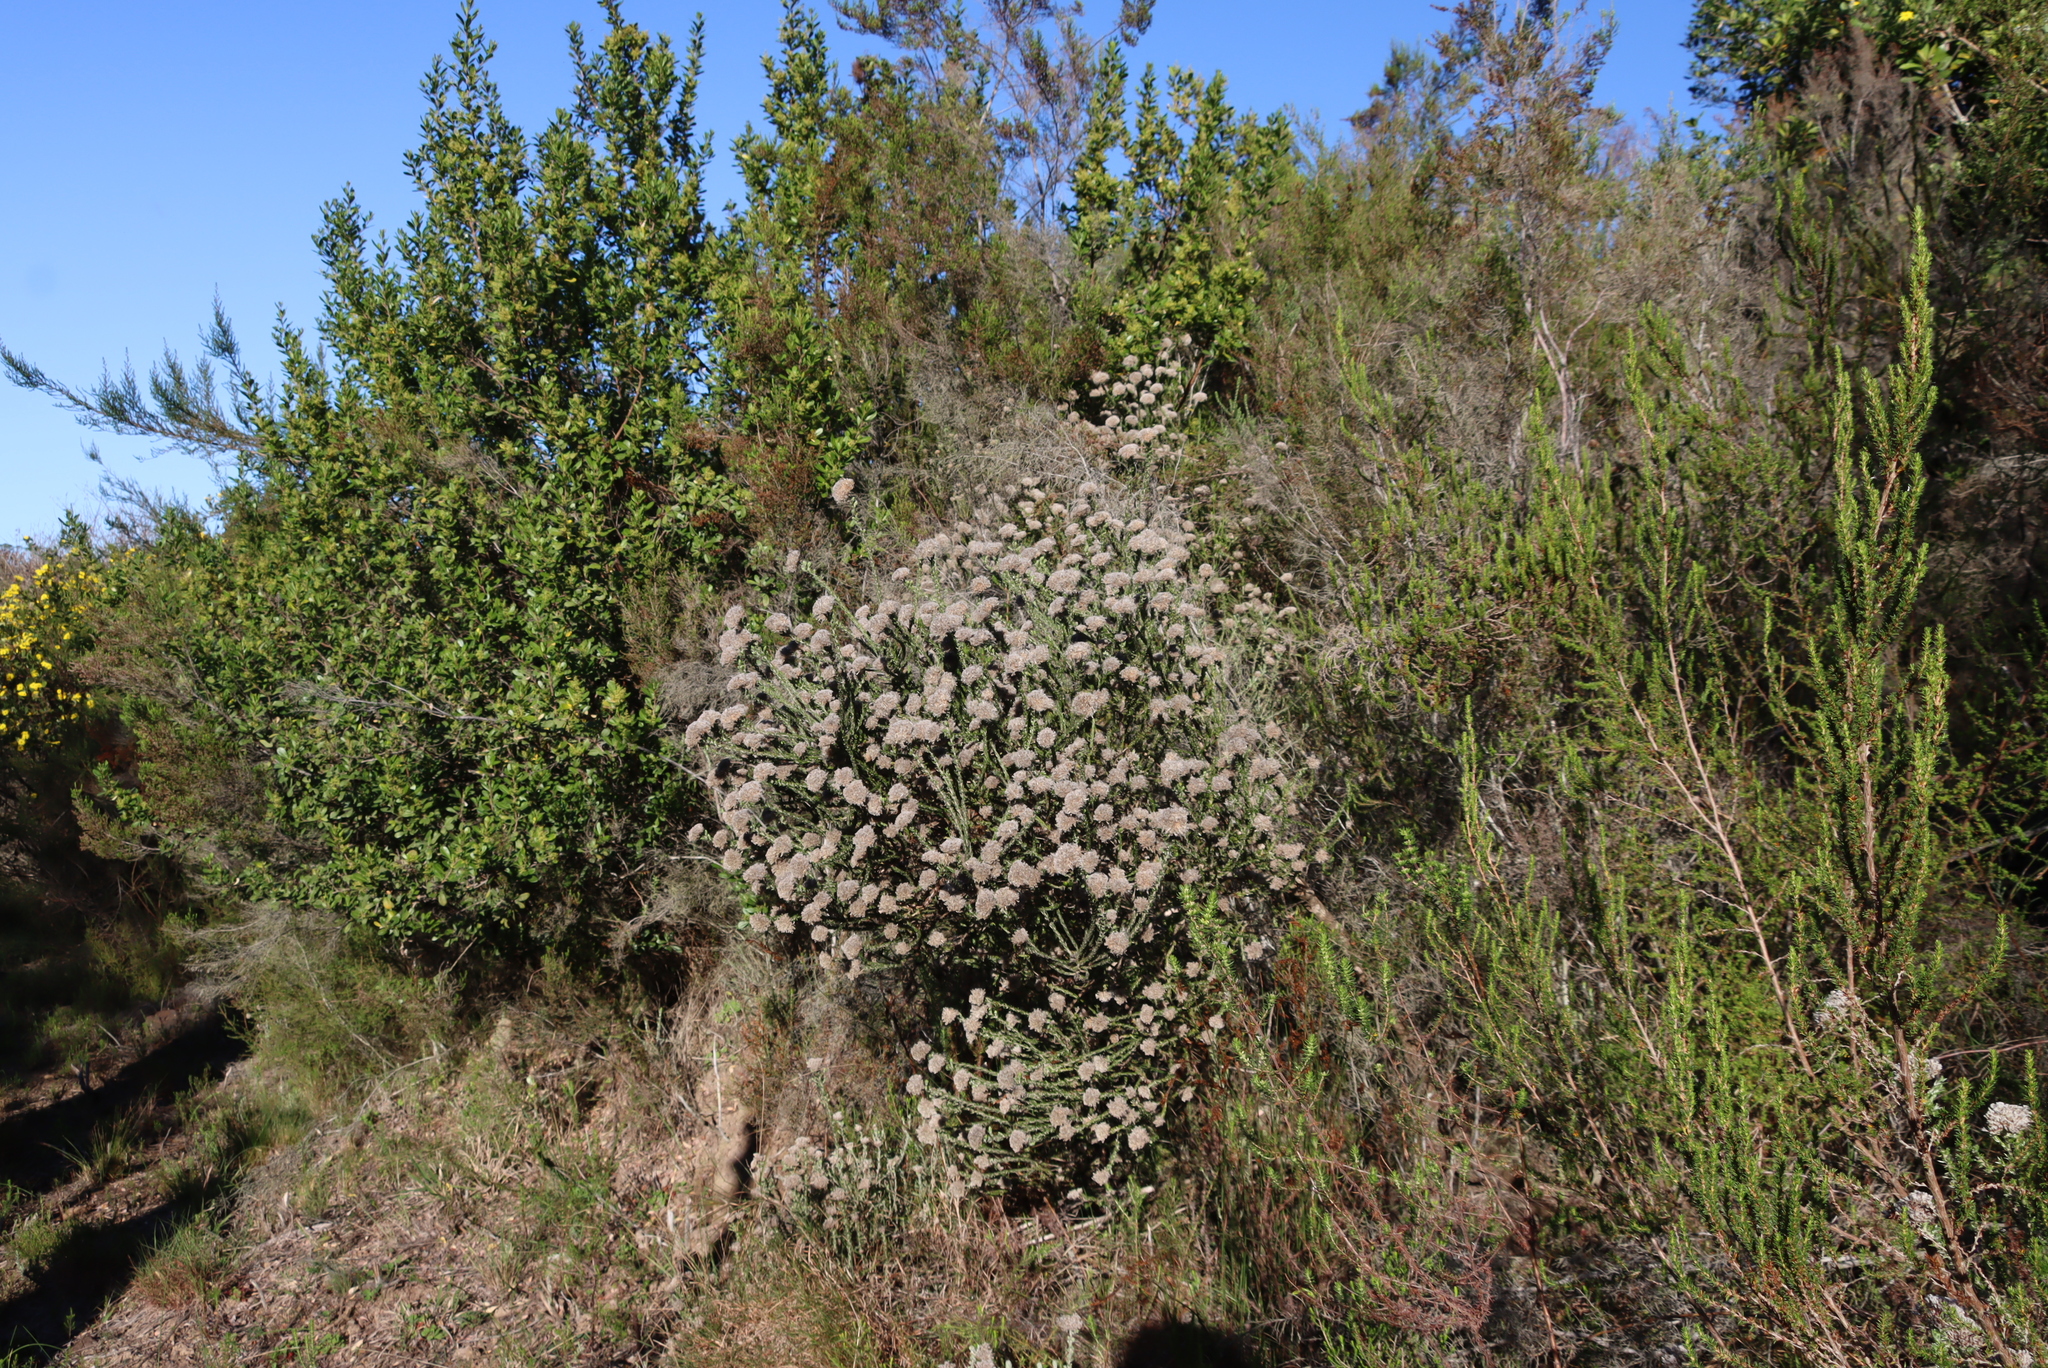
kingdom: Plantae
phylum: Tracheophyta
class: Magnoliopsida
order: Asterales
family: Asteraceae
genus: Metalasia
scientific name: Metalasia pungens
